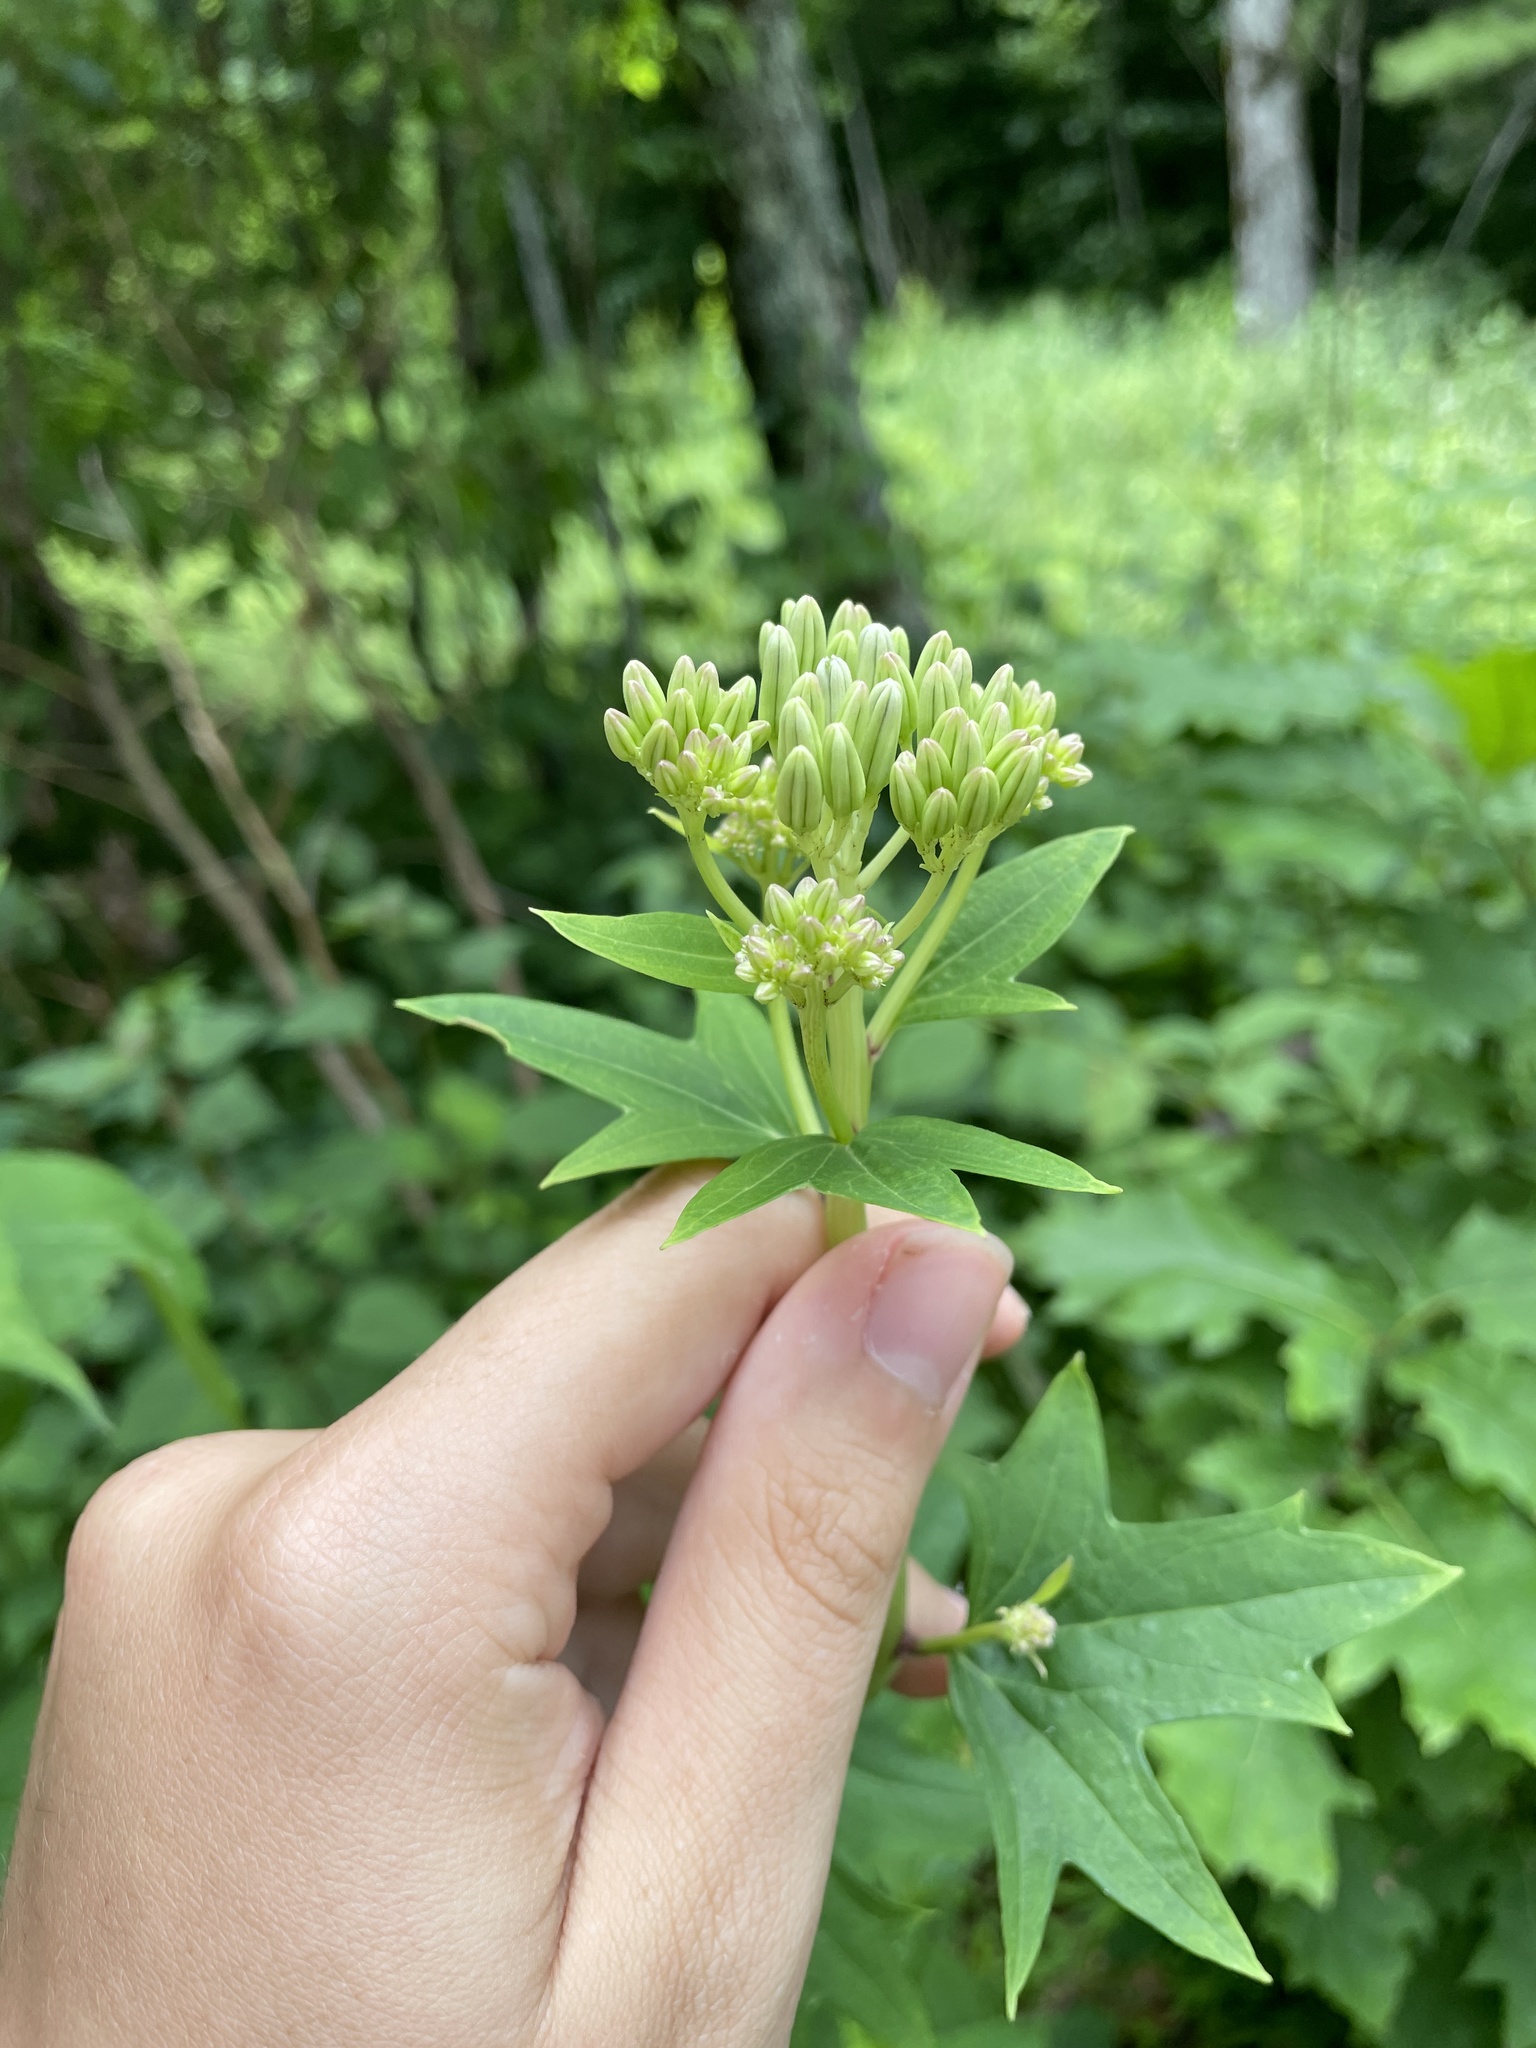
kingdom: Plantae
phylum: Tracheophyta
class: Magnoliopsida
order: Asterales
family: Asteraceae
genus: Arnoglossum
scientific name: Arnoglossum atriplicifolium
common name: Pale indian-plantain
